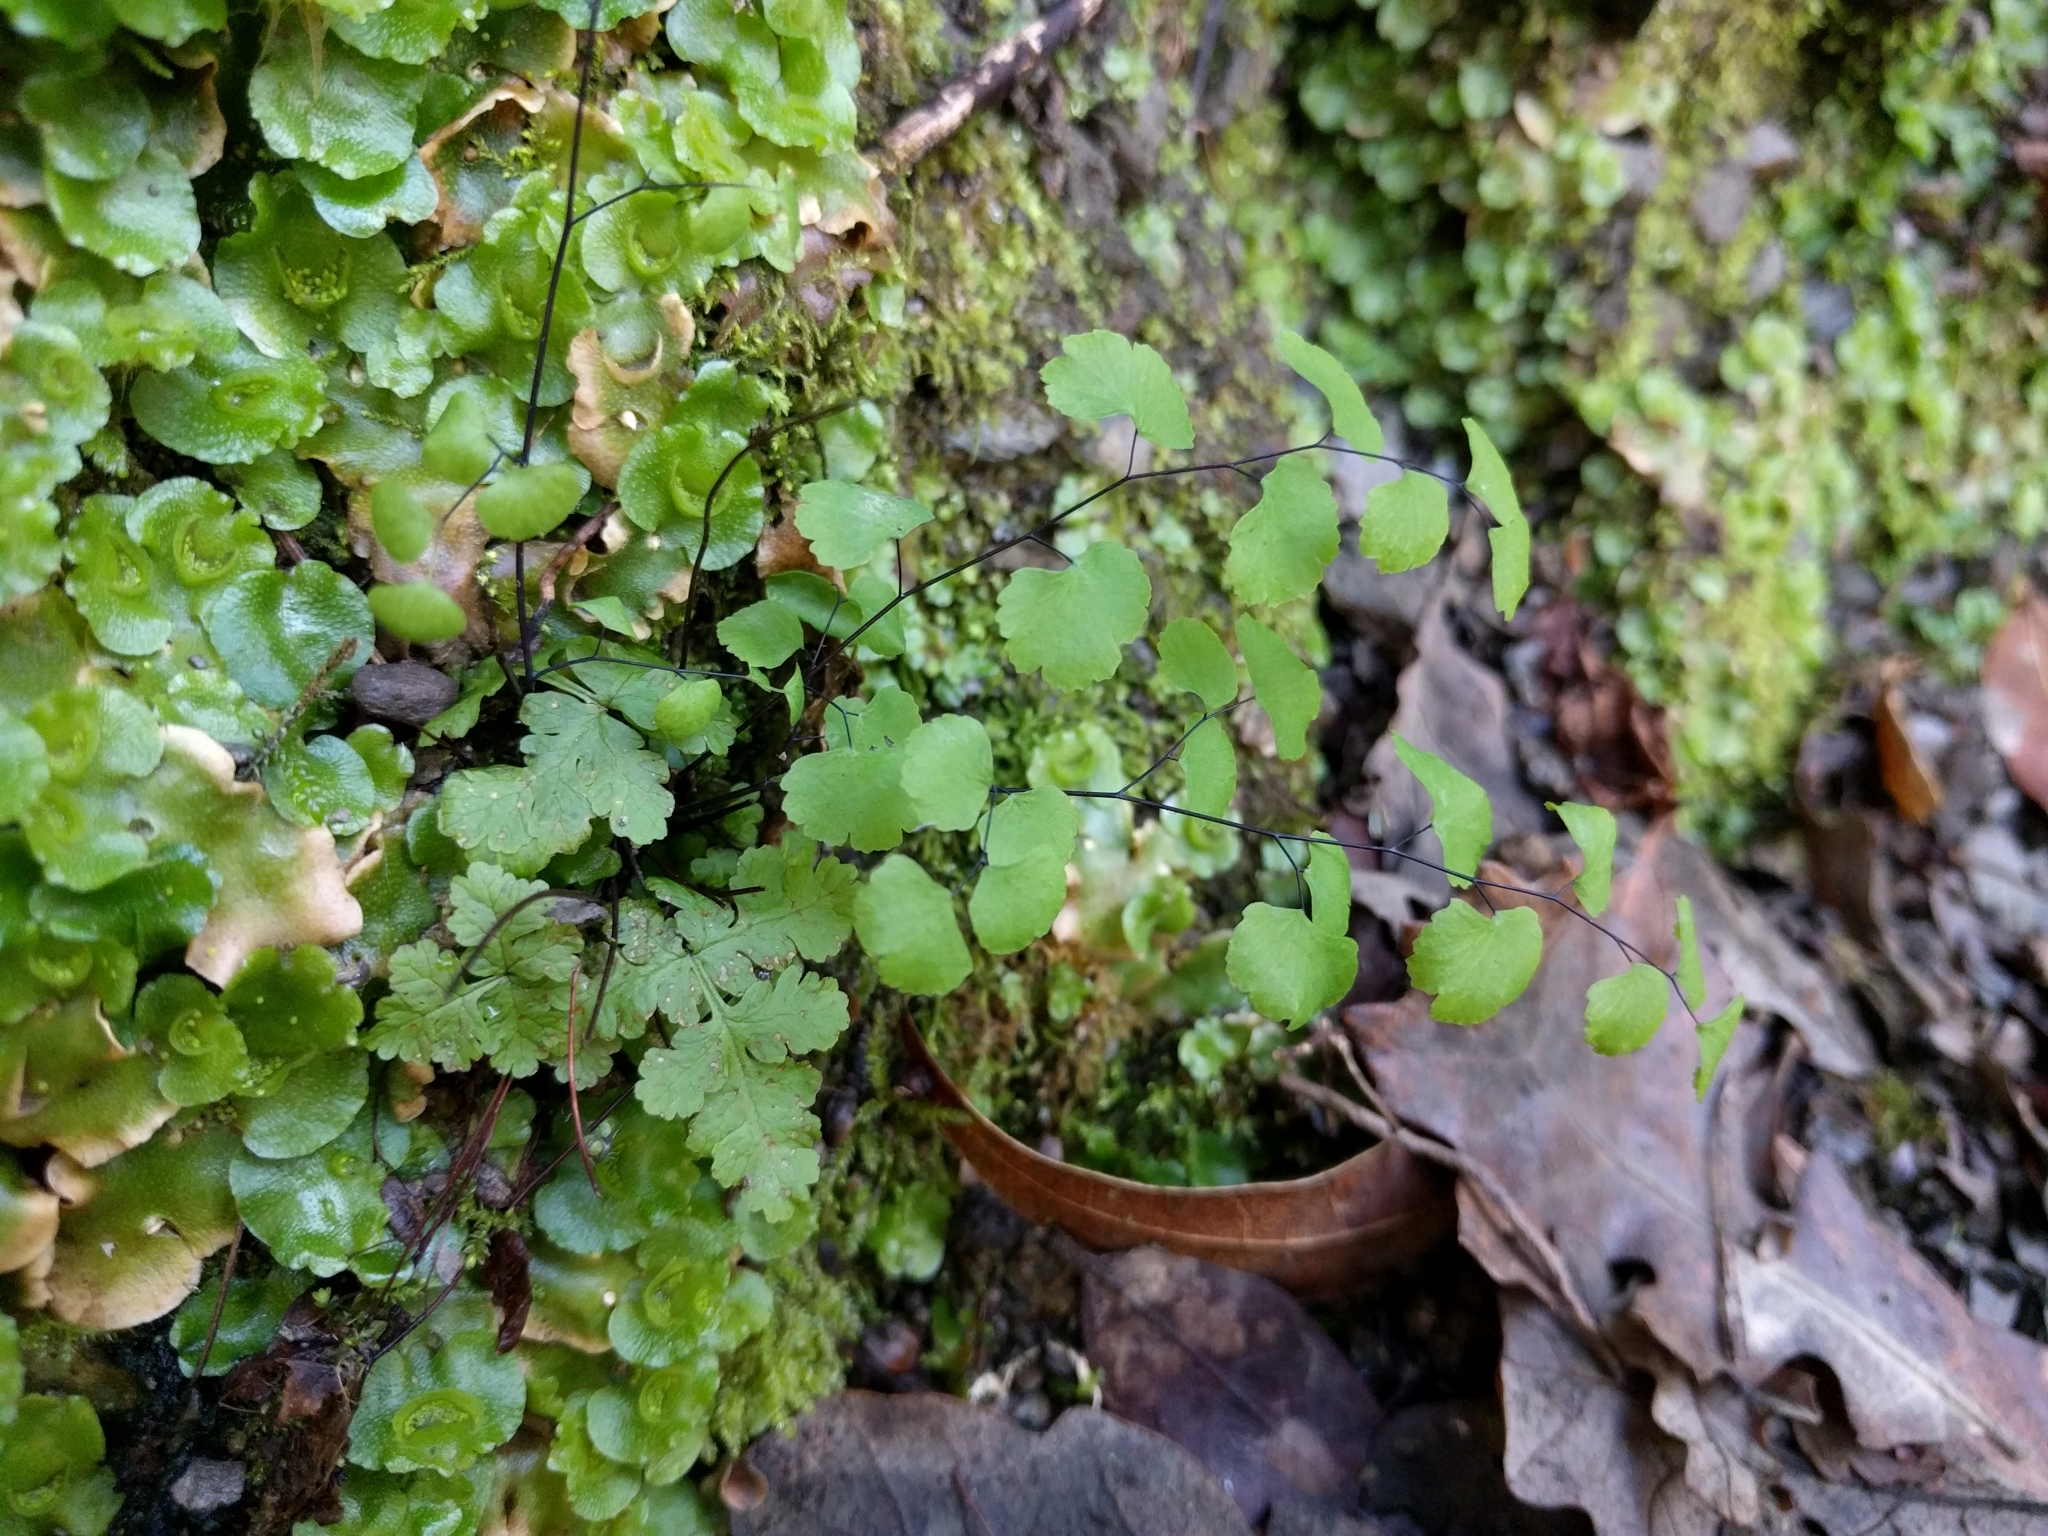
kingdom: Plantae
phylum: Tracheophyta
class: Polypodiopsida
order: Polypodiales
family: Pteridaceae
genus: Adiantum
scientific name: Adiantum jordanii
